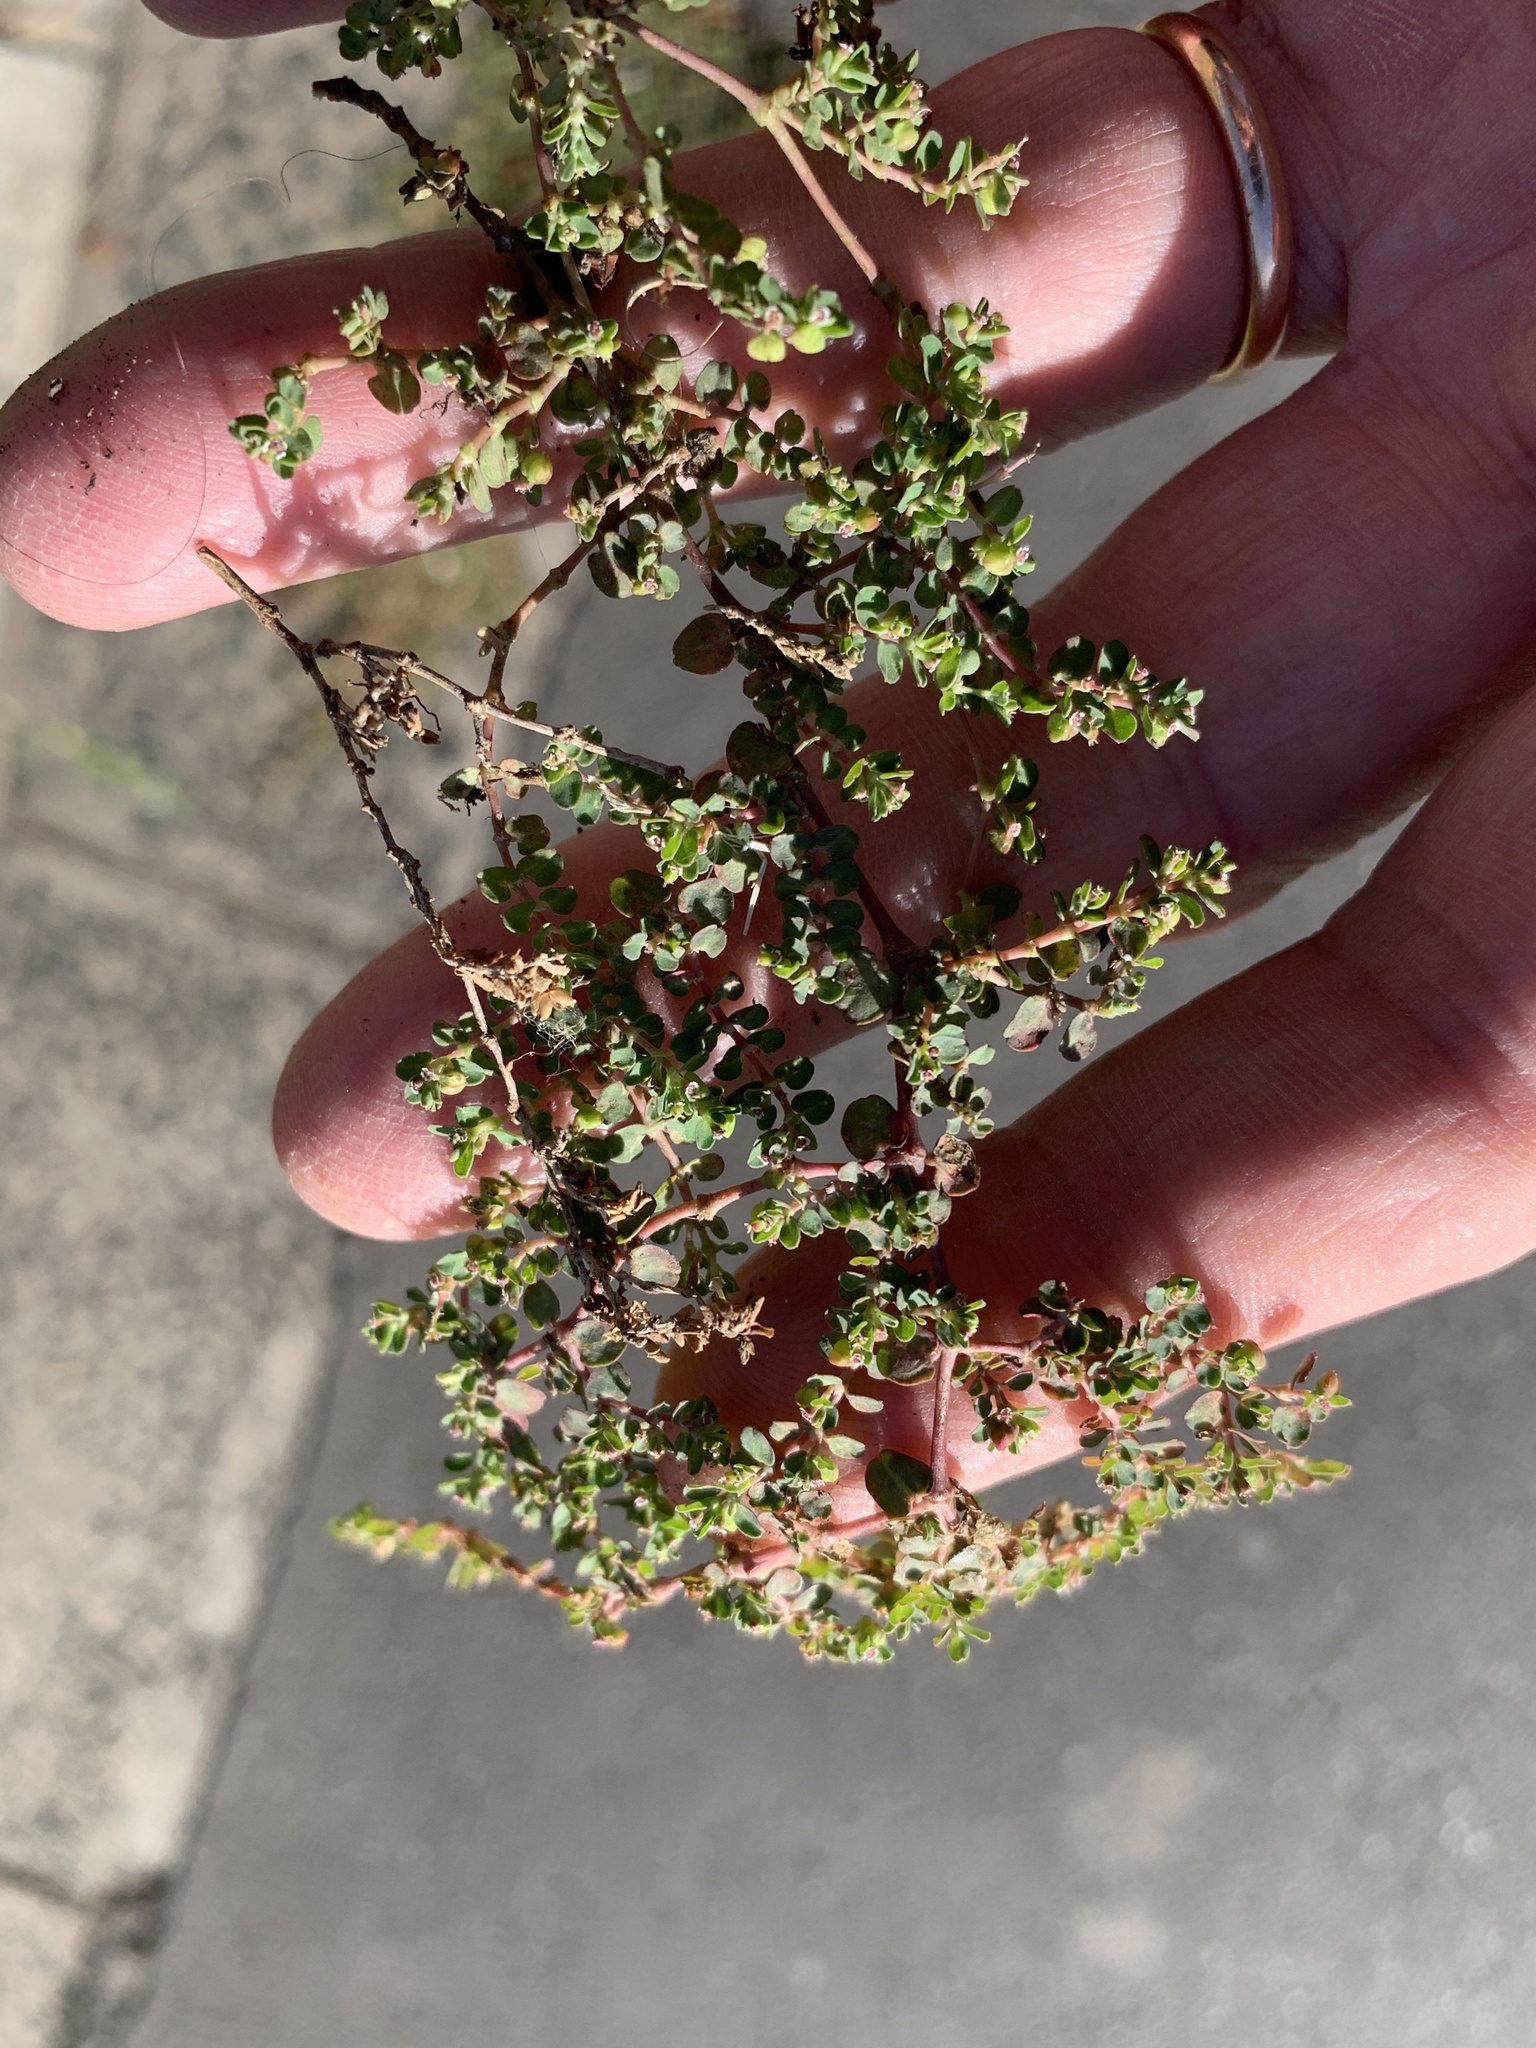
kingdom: Plantae
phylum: Tracheophyta
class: Magnoliopsida
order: Malpighiales
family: Euphorbiaceae
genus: Euphorbia
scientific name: Euphorbia serpens
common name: Matted sandmat
